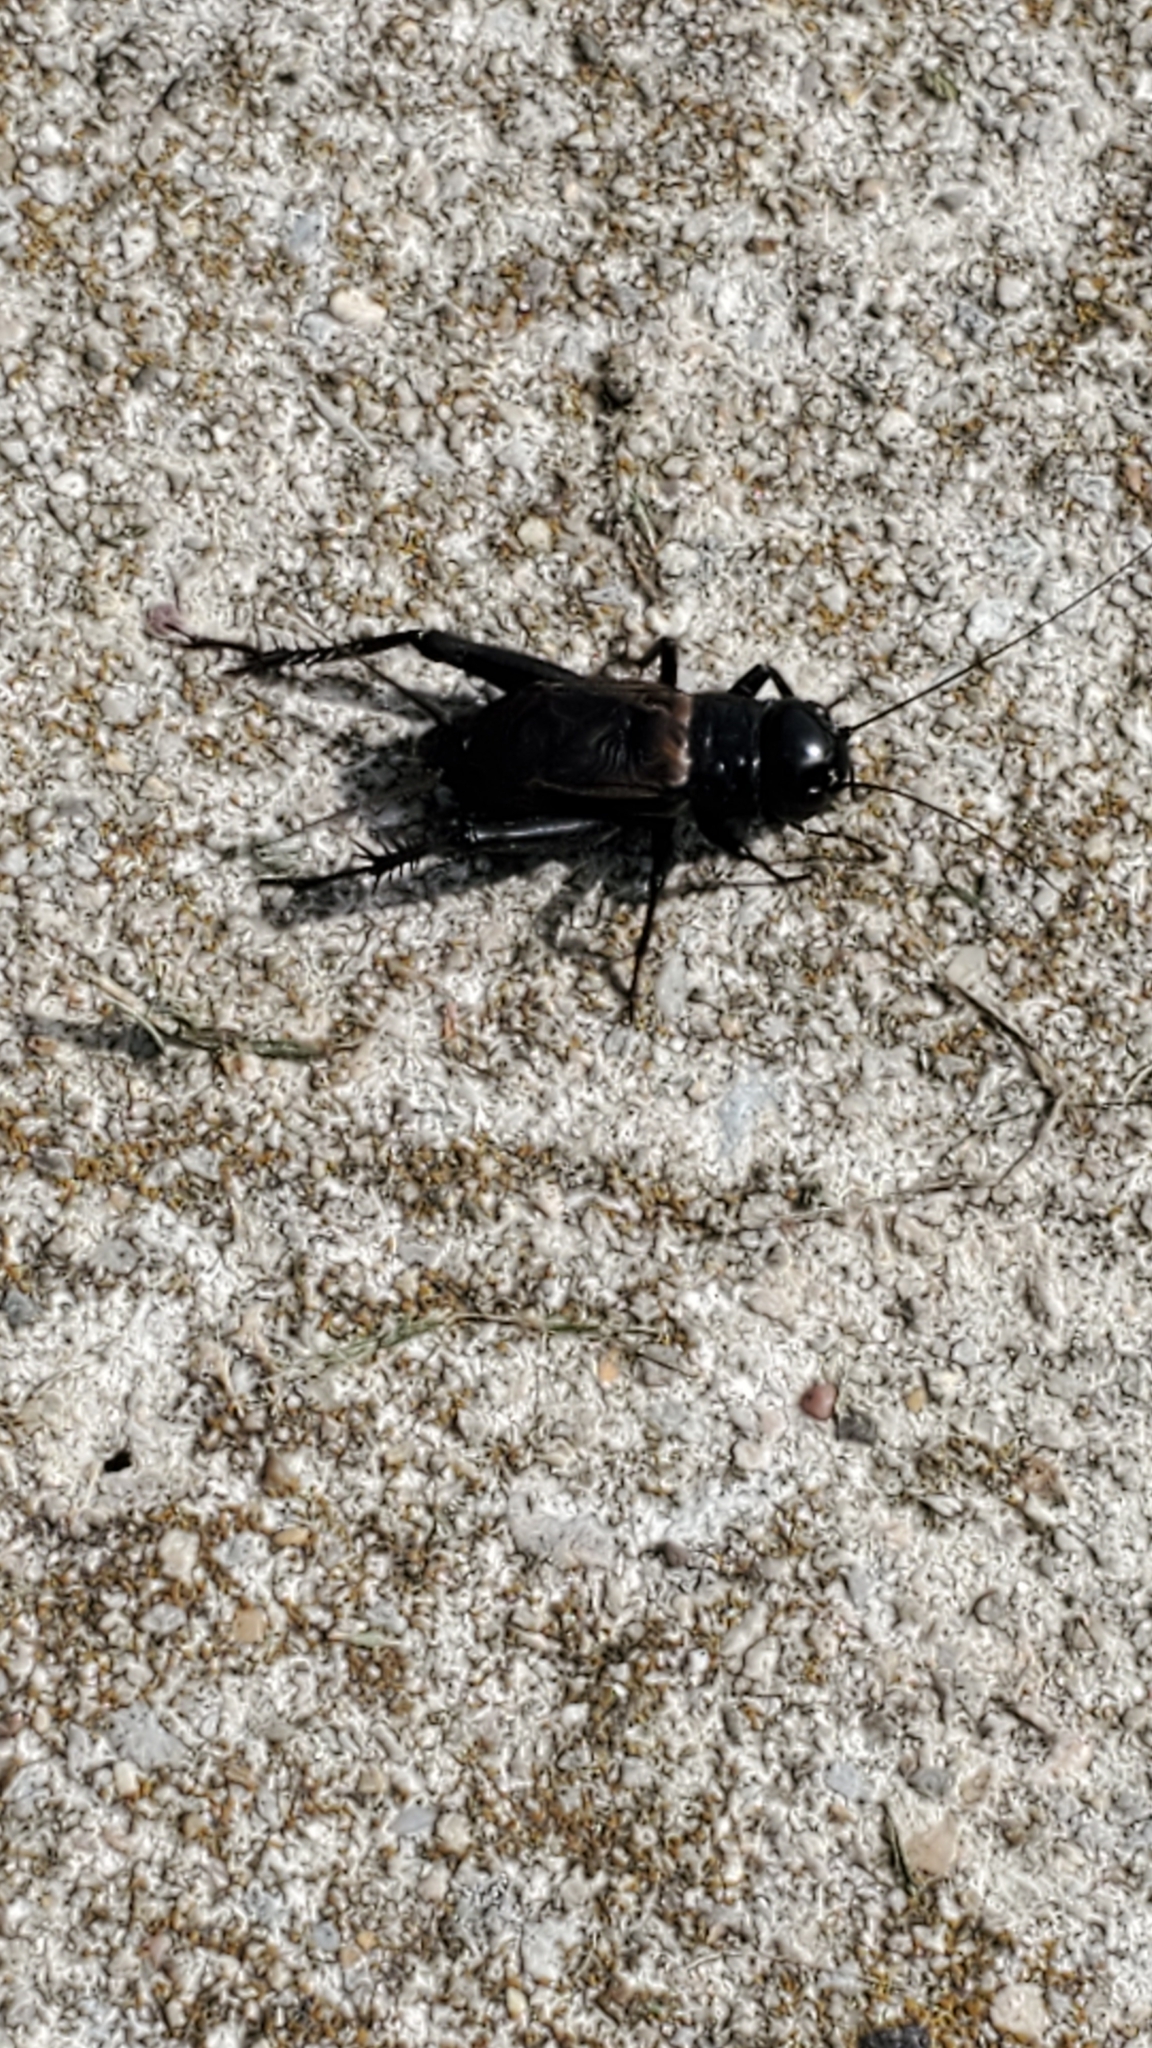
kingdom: Animalia
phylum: Arthropoda
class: Insecta
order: Orthoptera
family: Gryllidae
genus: Gryllus
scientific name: Gryllus pennsylvanicus
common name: Fall field cricket
